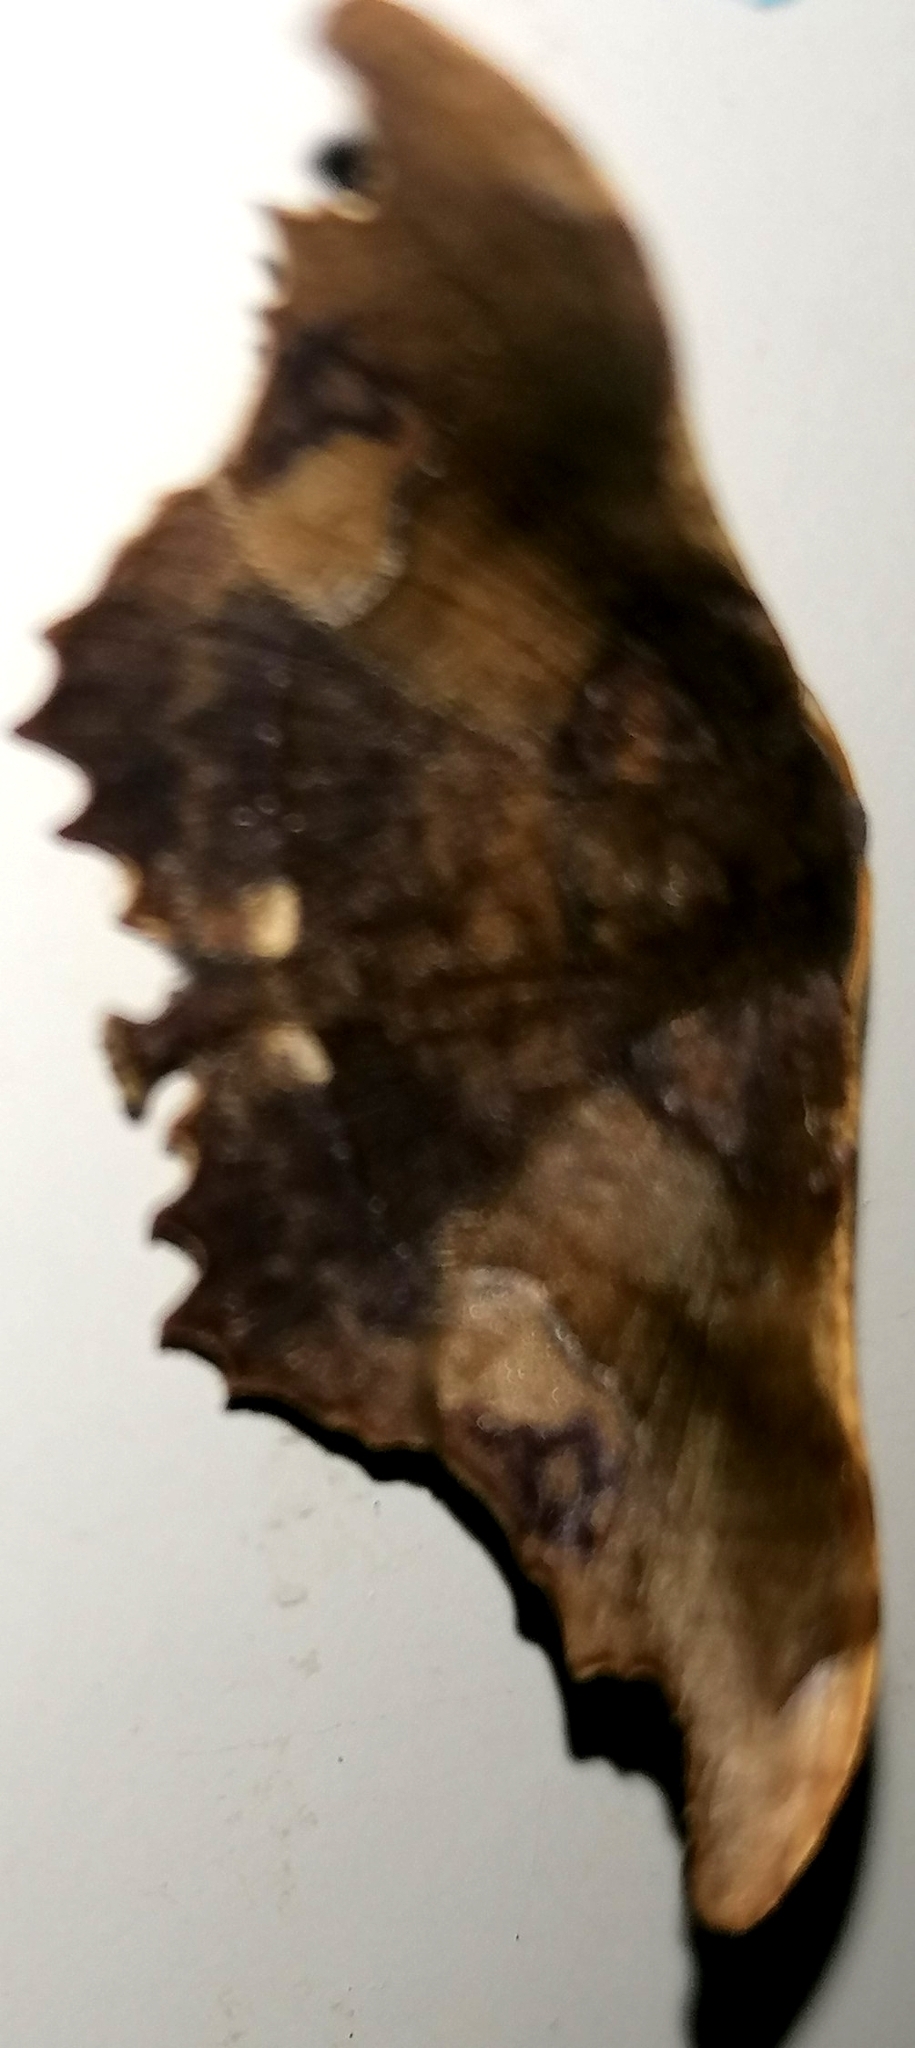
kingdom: Animalia
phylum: Arthropoda
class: Insecta
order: Lepidoptera
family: Geometridae
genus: Patalene
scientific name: Patalene aenetusaria
